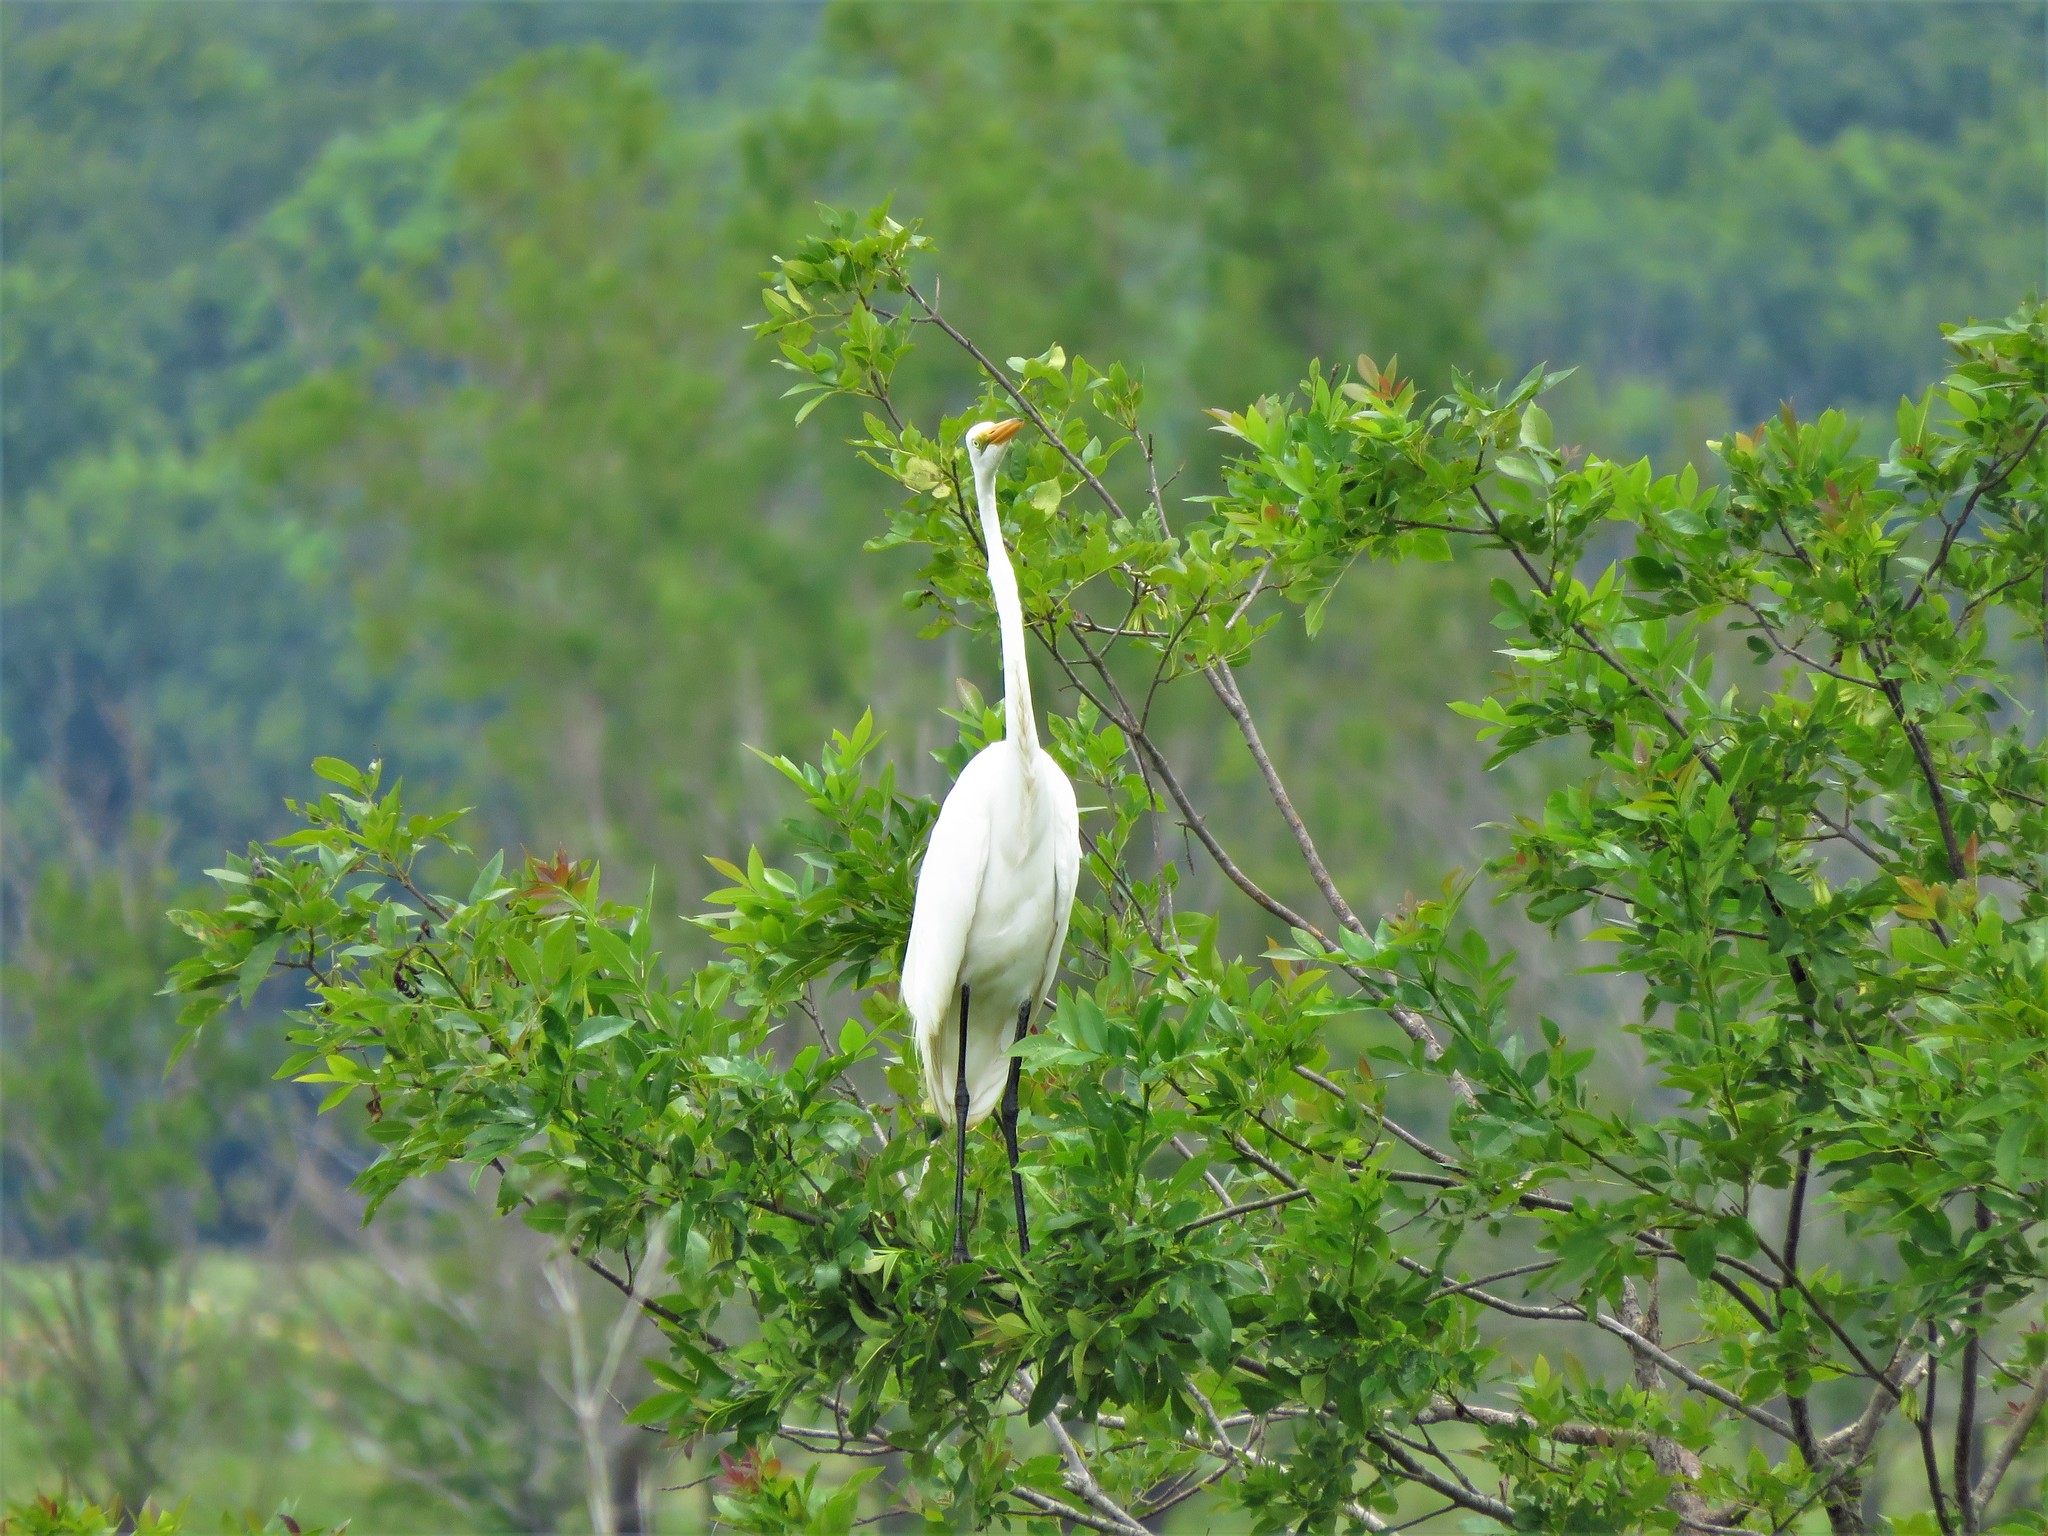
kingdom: Animalia
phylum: Chordata
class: Aves
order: Pelecaniformes
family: Ardeidae
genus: Ardea
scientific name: Ardea alba
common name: Great egret
